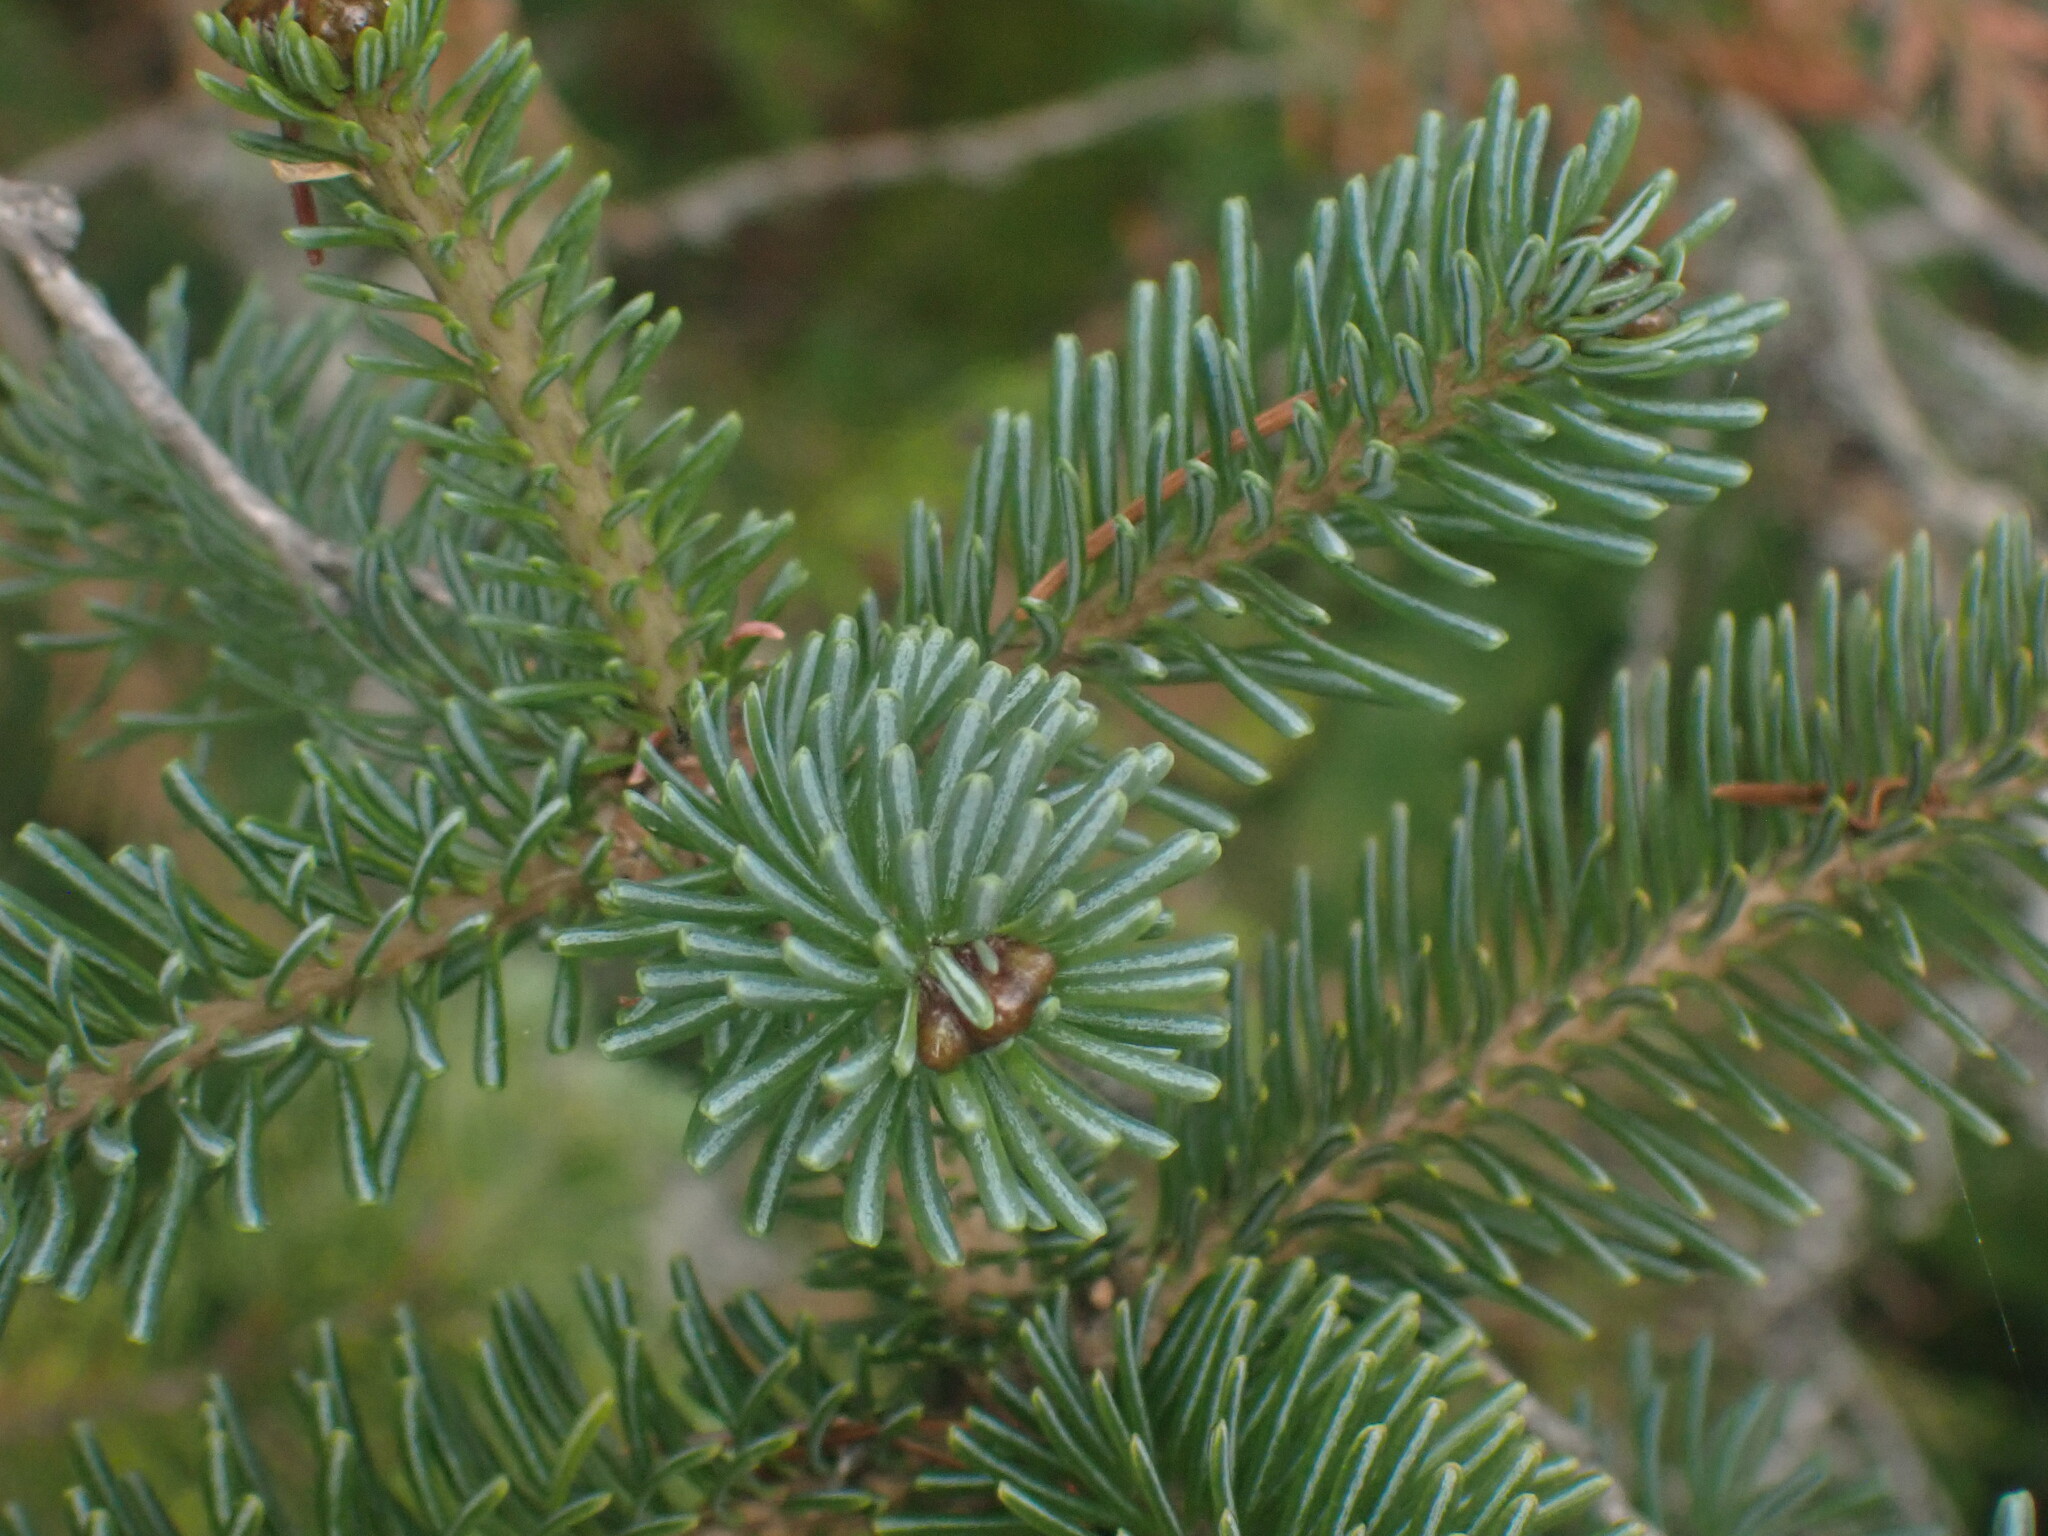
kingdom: Plantae
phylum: Tracheophyta
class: Pinopsida
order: Pinales
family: Pinaceae
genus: Abies
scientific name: Abies lasiocarpa
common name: Subalpine fir
